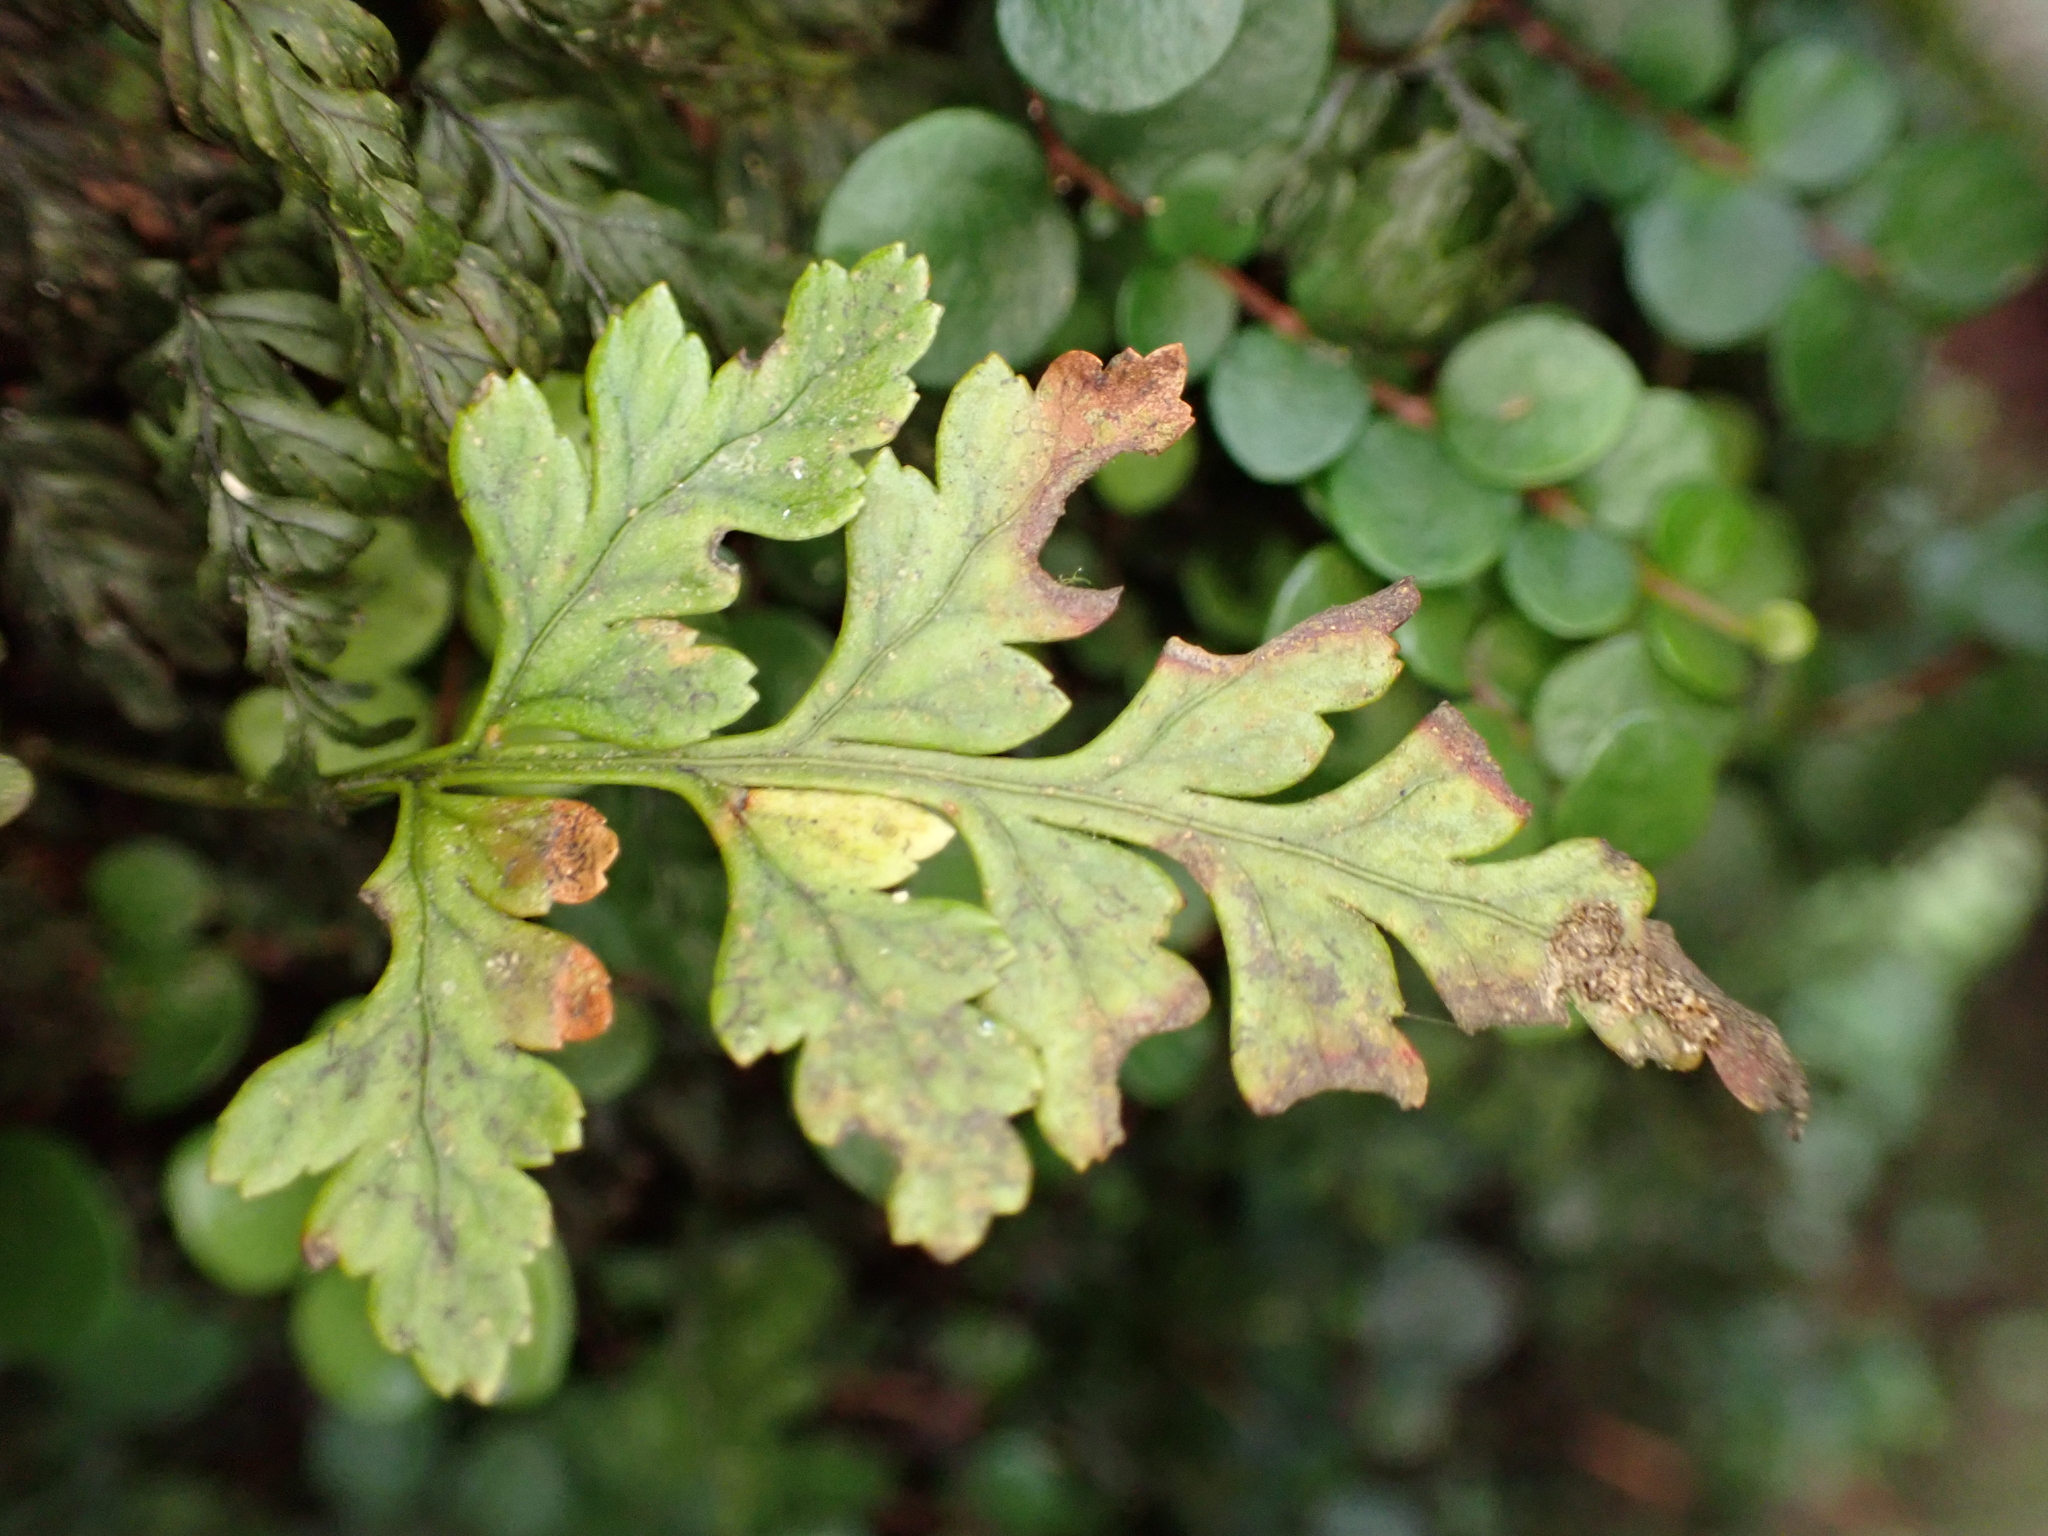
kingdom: Plantae
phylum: Tracheophyta
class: Polypodiopsida
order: Polypodiales
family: Dryopteridaceae
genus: Rumohra
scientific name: Rumohra adiantiformis
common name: Leather fern
